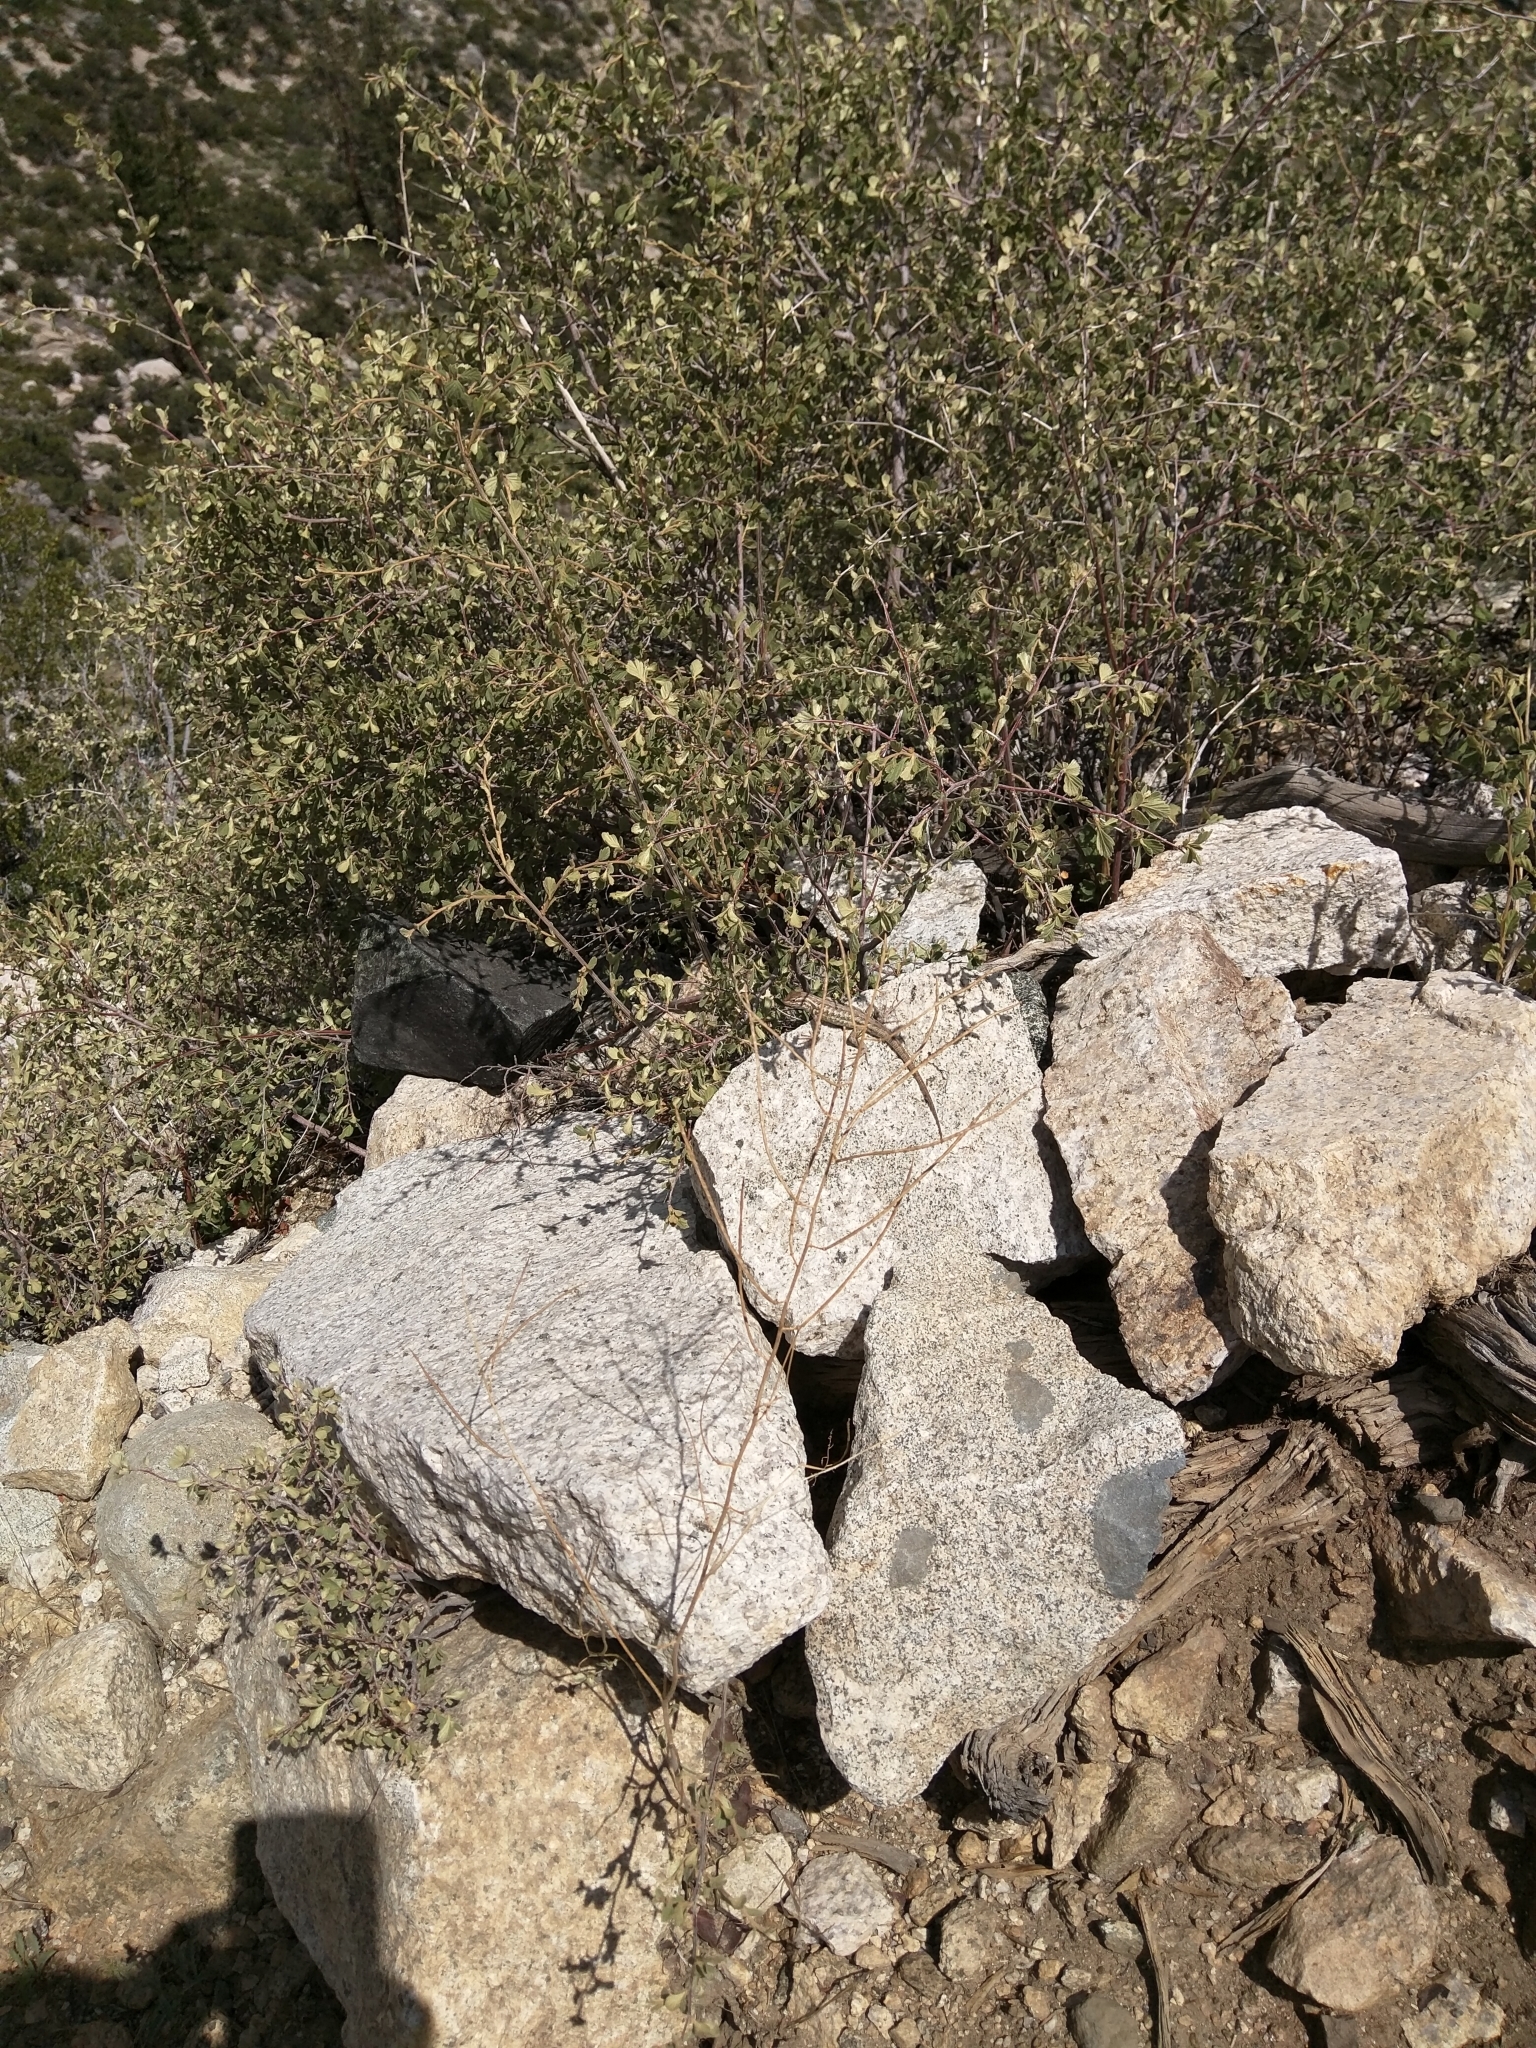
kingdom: Animalia
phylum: Chordata
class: Squamata
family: Phrynosomatidae
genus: Sceloporus
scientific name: Sceloporus graciosus
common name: Sagebrush lizard
